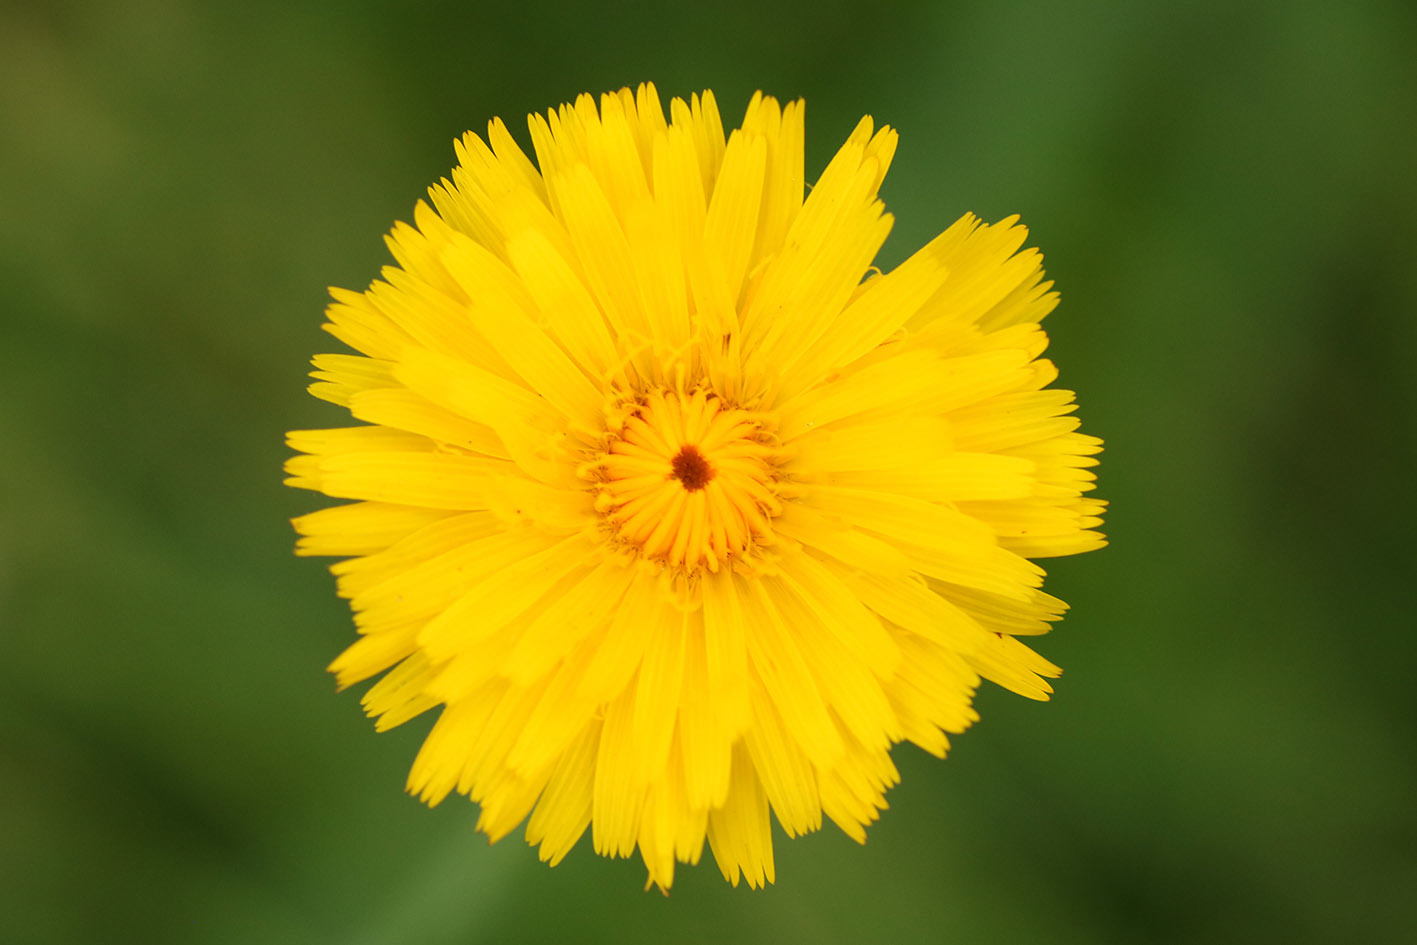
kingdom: Plantae
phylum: Tracheophyta
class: Magnoliopsida
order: Asterales
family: Asteraceae
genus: Hypochaeris
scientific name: Hypochaeris radicata
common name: Flatweed
